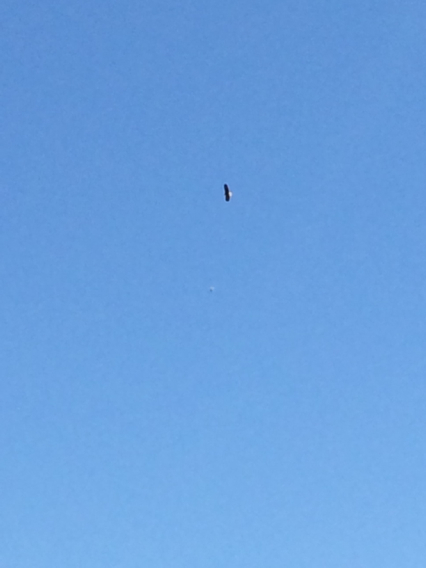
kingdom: Animalia
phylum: Chordata
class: Aves
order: Accipitriformes
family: Accipitridae
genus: Haliaeetus
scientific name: Haliaeetus leucocephalus
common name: Bald eagle
